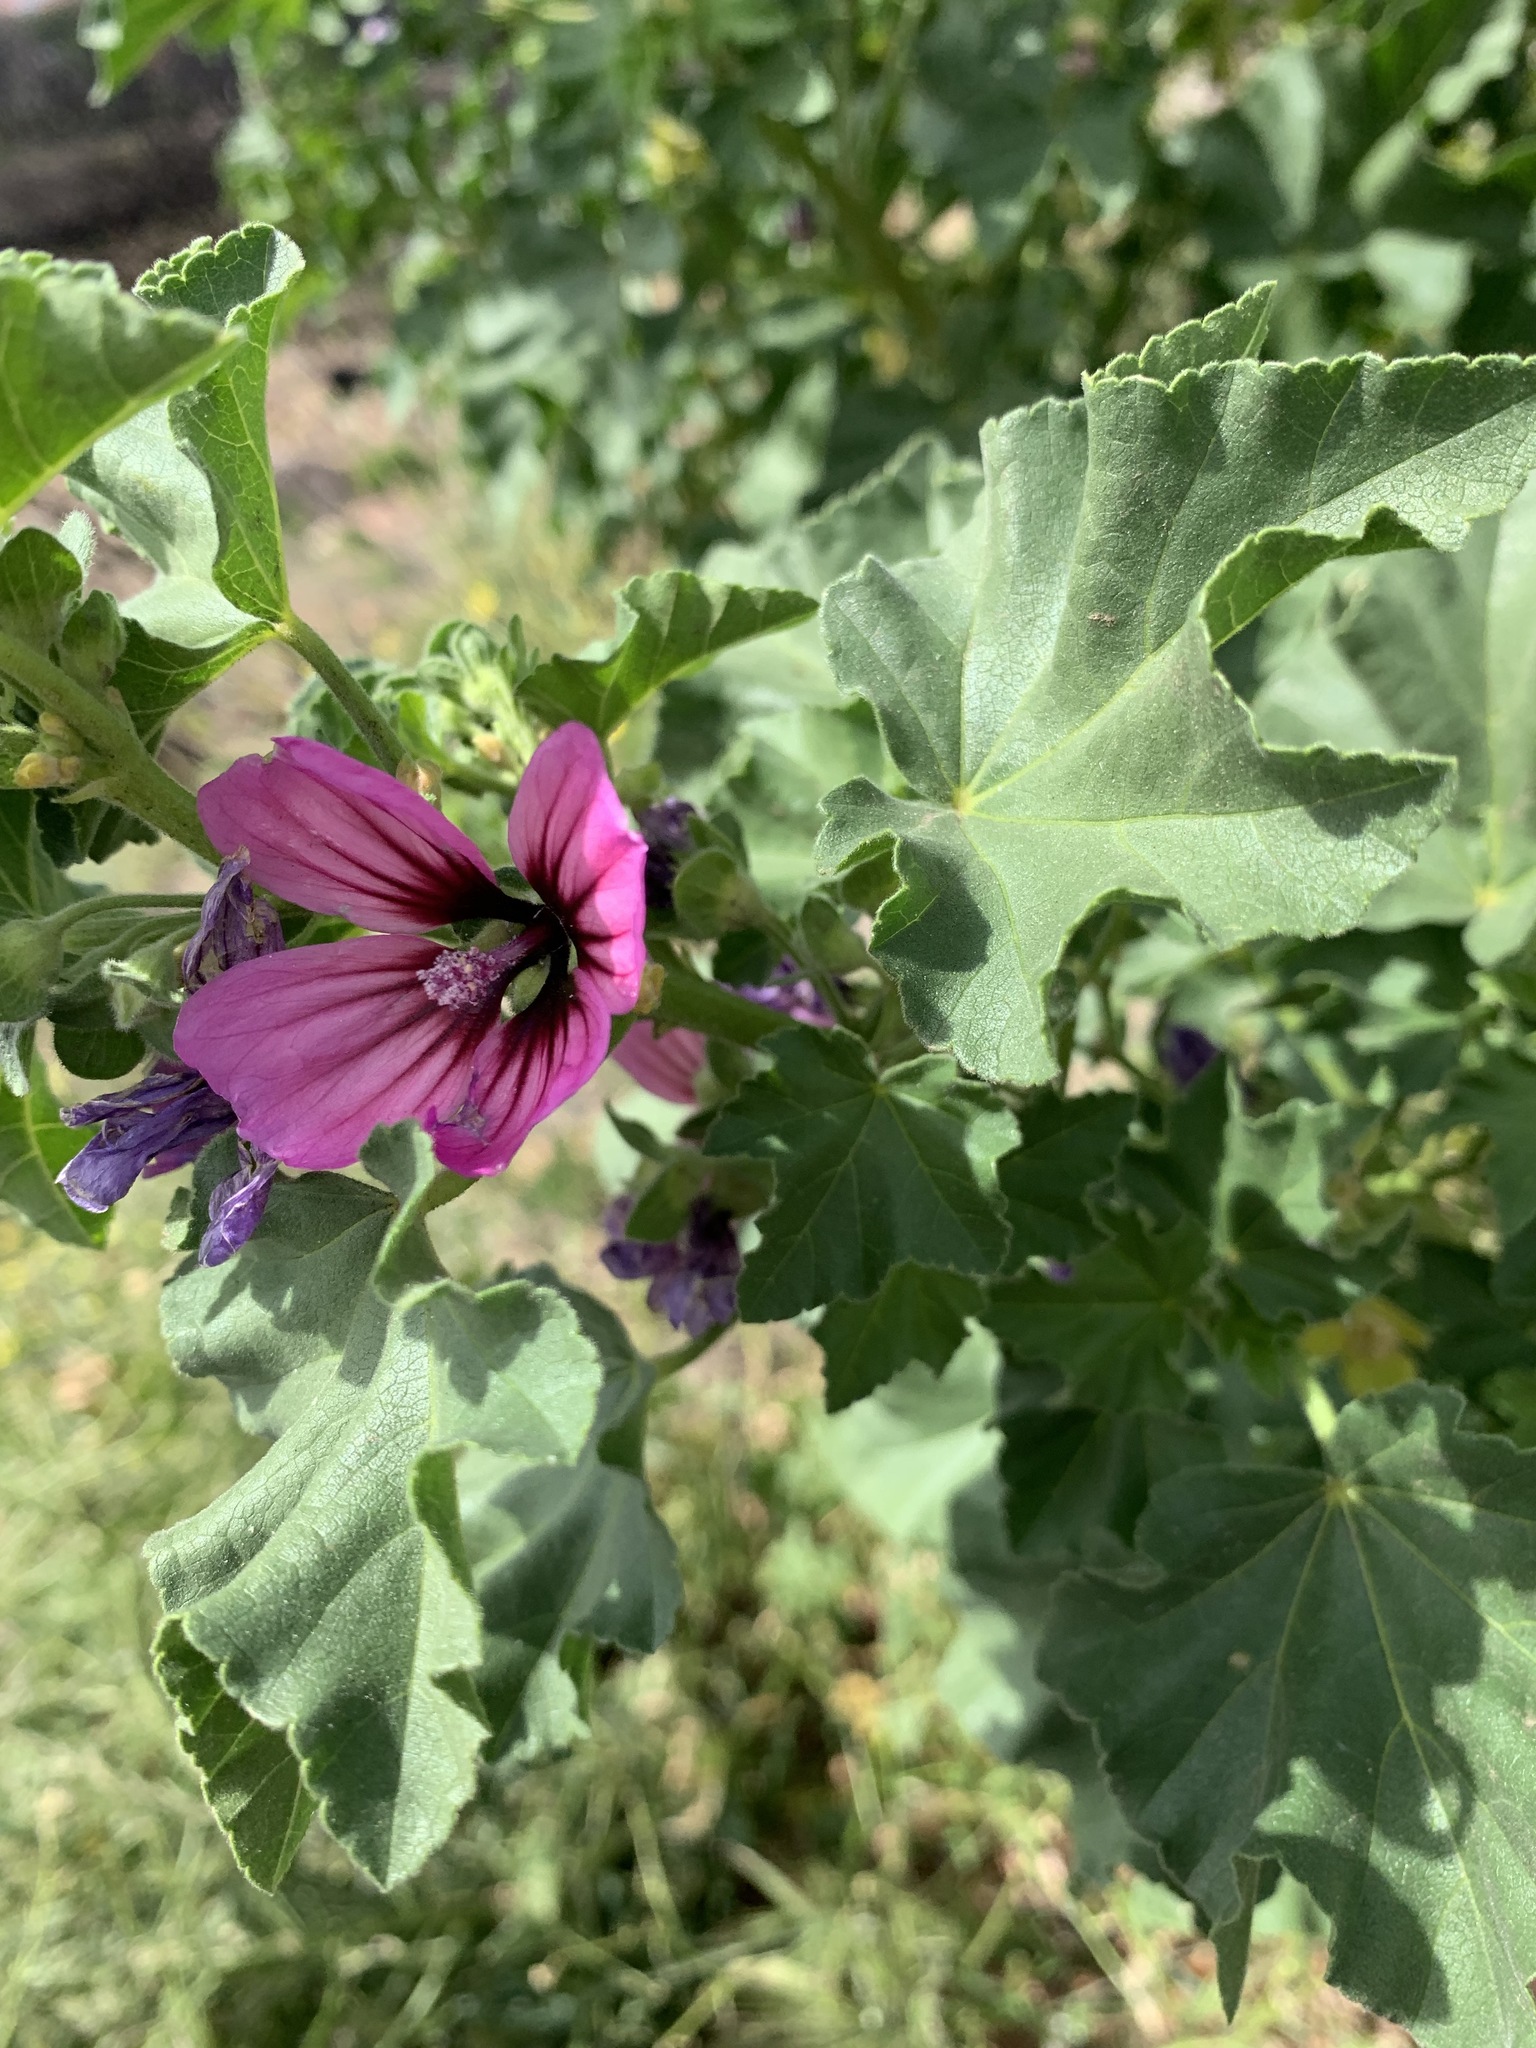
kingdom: Plantae
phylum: Tracheophyta
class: Magnoliopsida
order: Malvales
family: Malvaceae
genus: Malva
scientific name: Malva arborea
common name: Tree mallow
